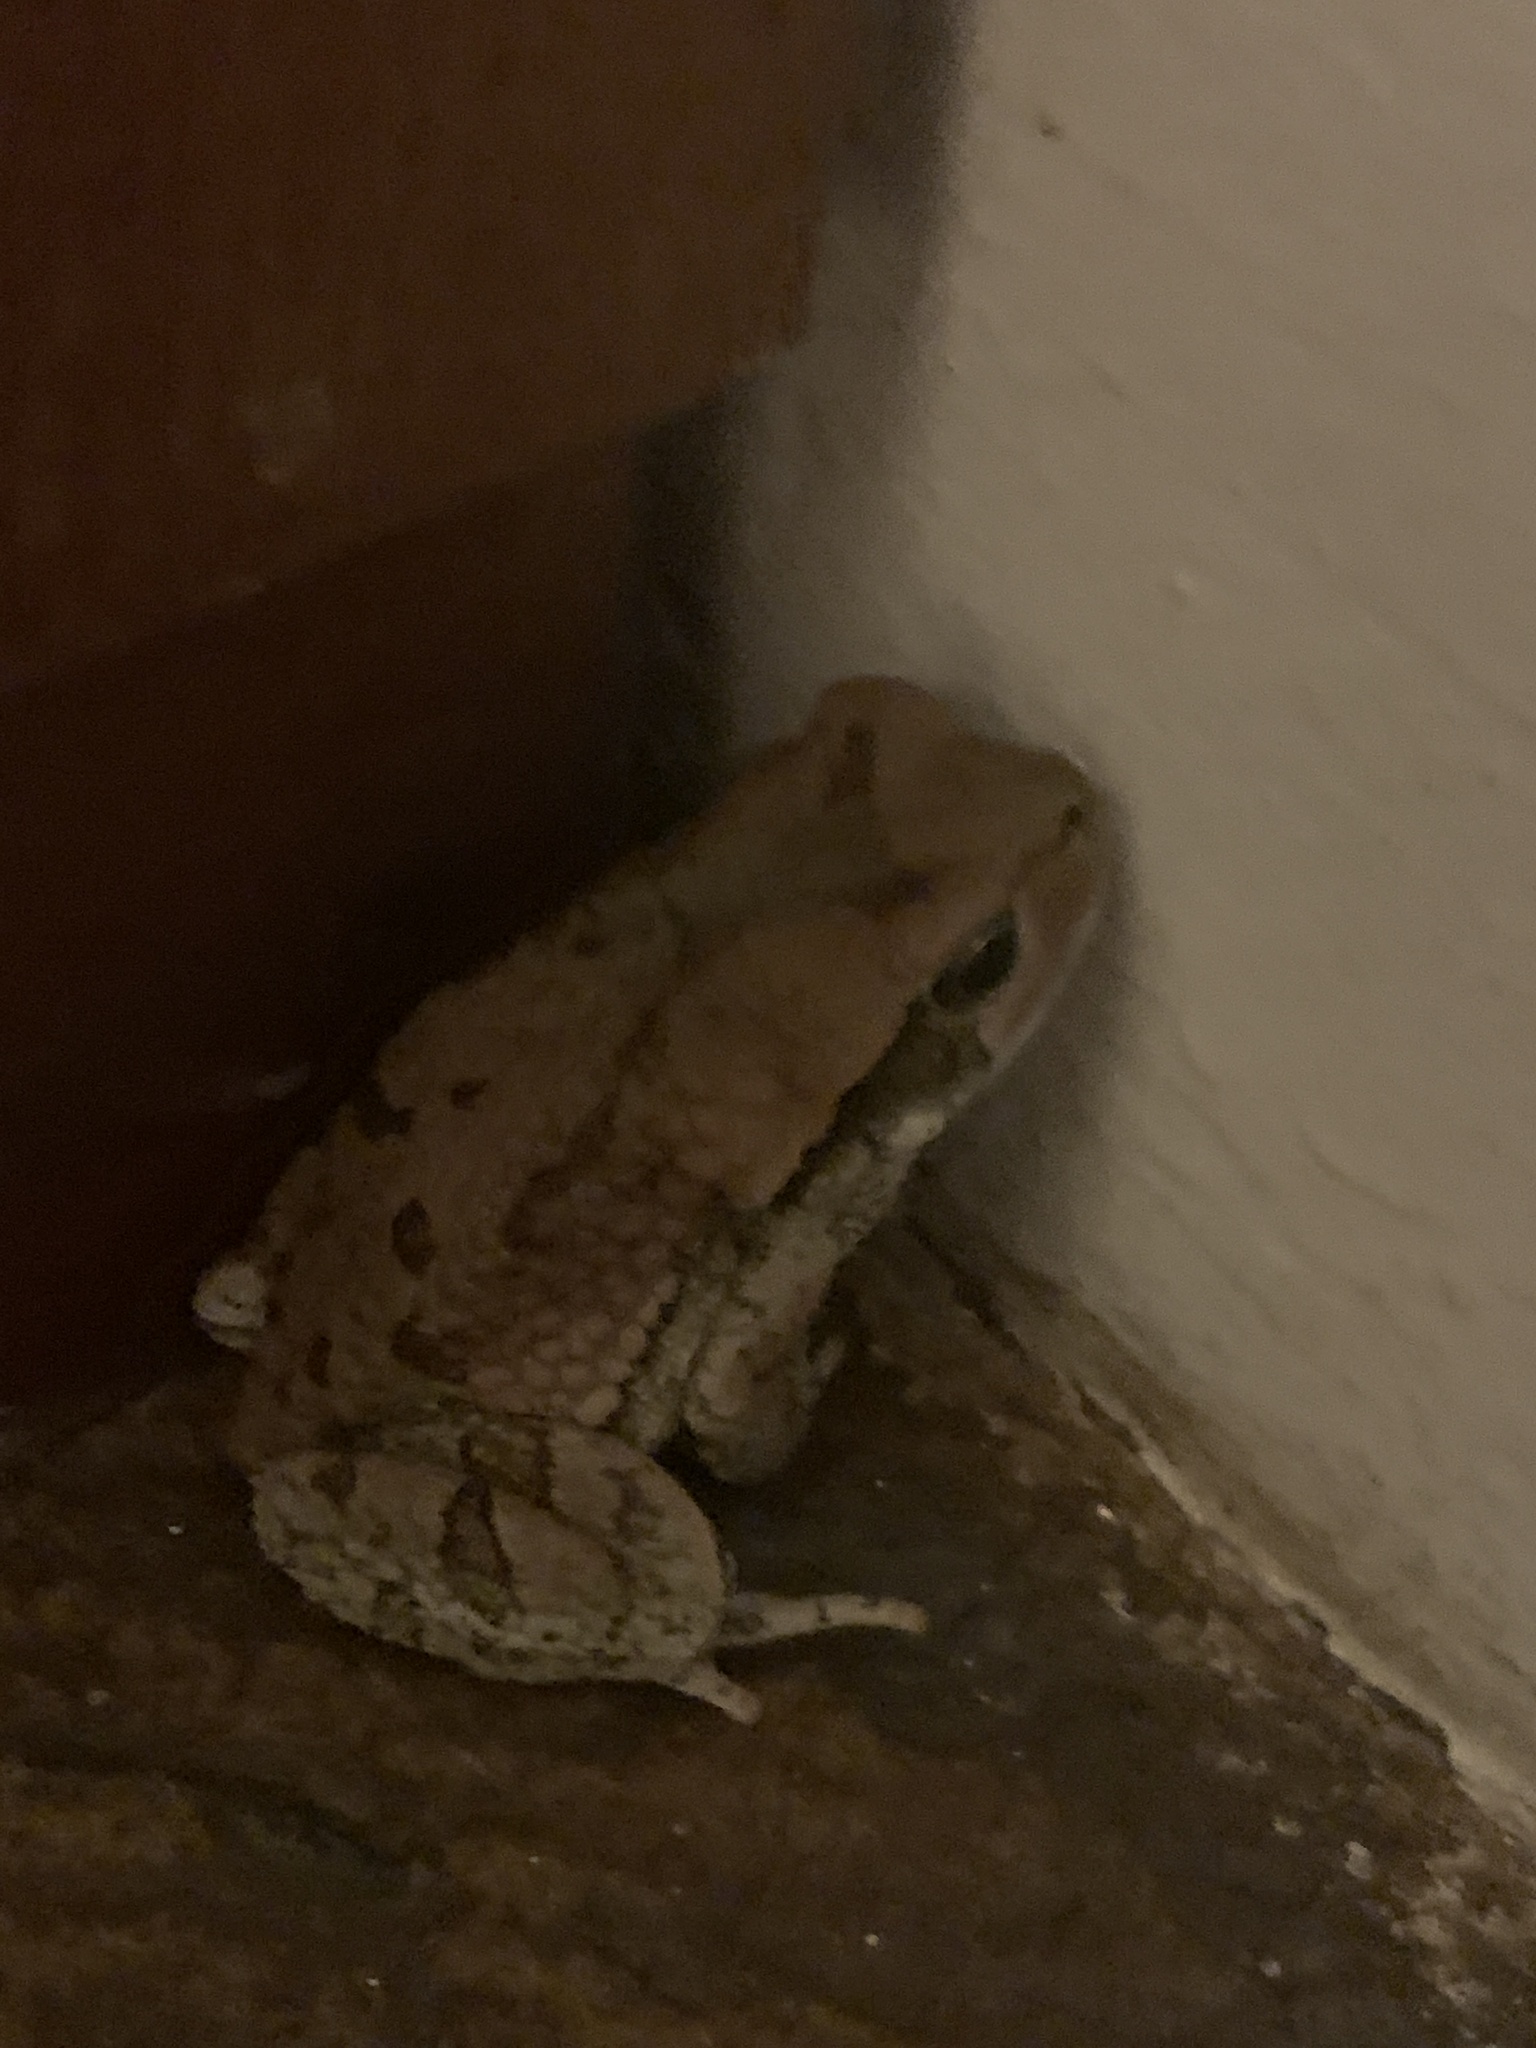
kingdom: Animalia
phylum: Chordata
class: Amphibia
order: Anura
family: Bufonidae
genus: Schismaderma
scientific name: Schismaderma carens
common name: African split-skin toad
